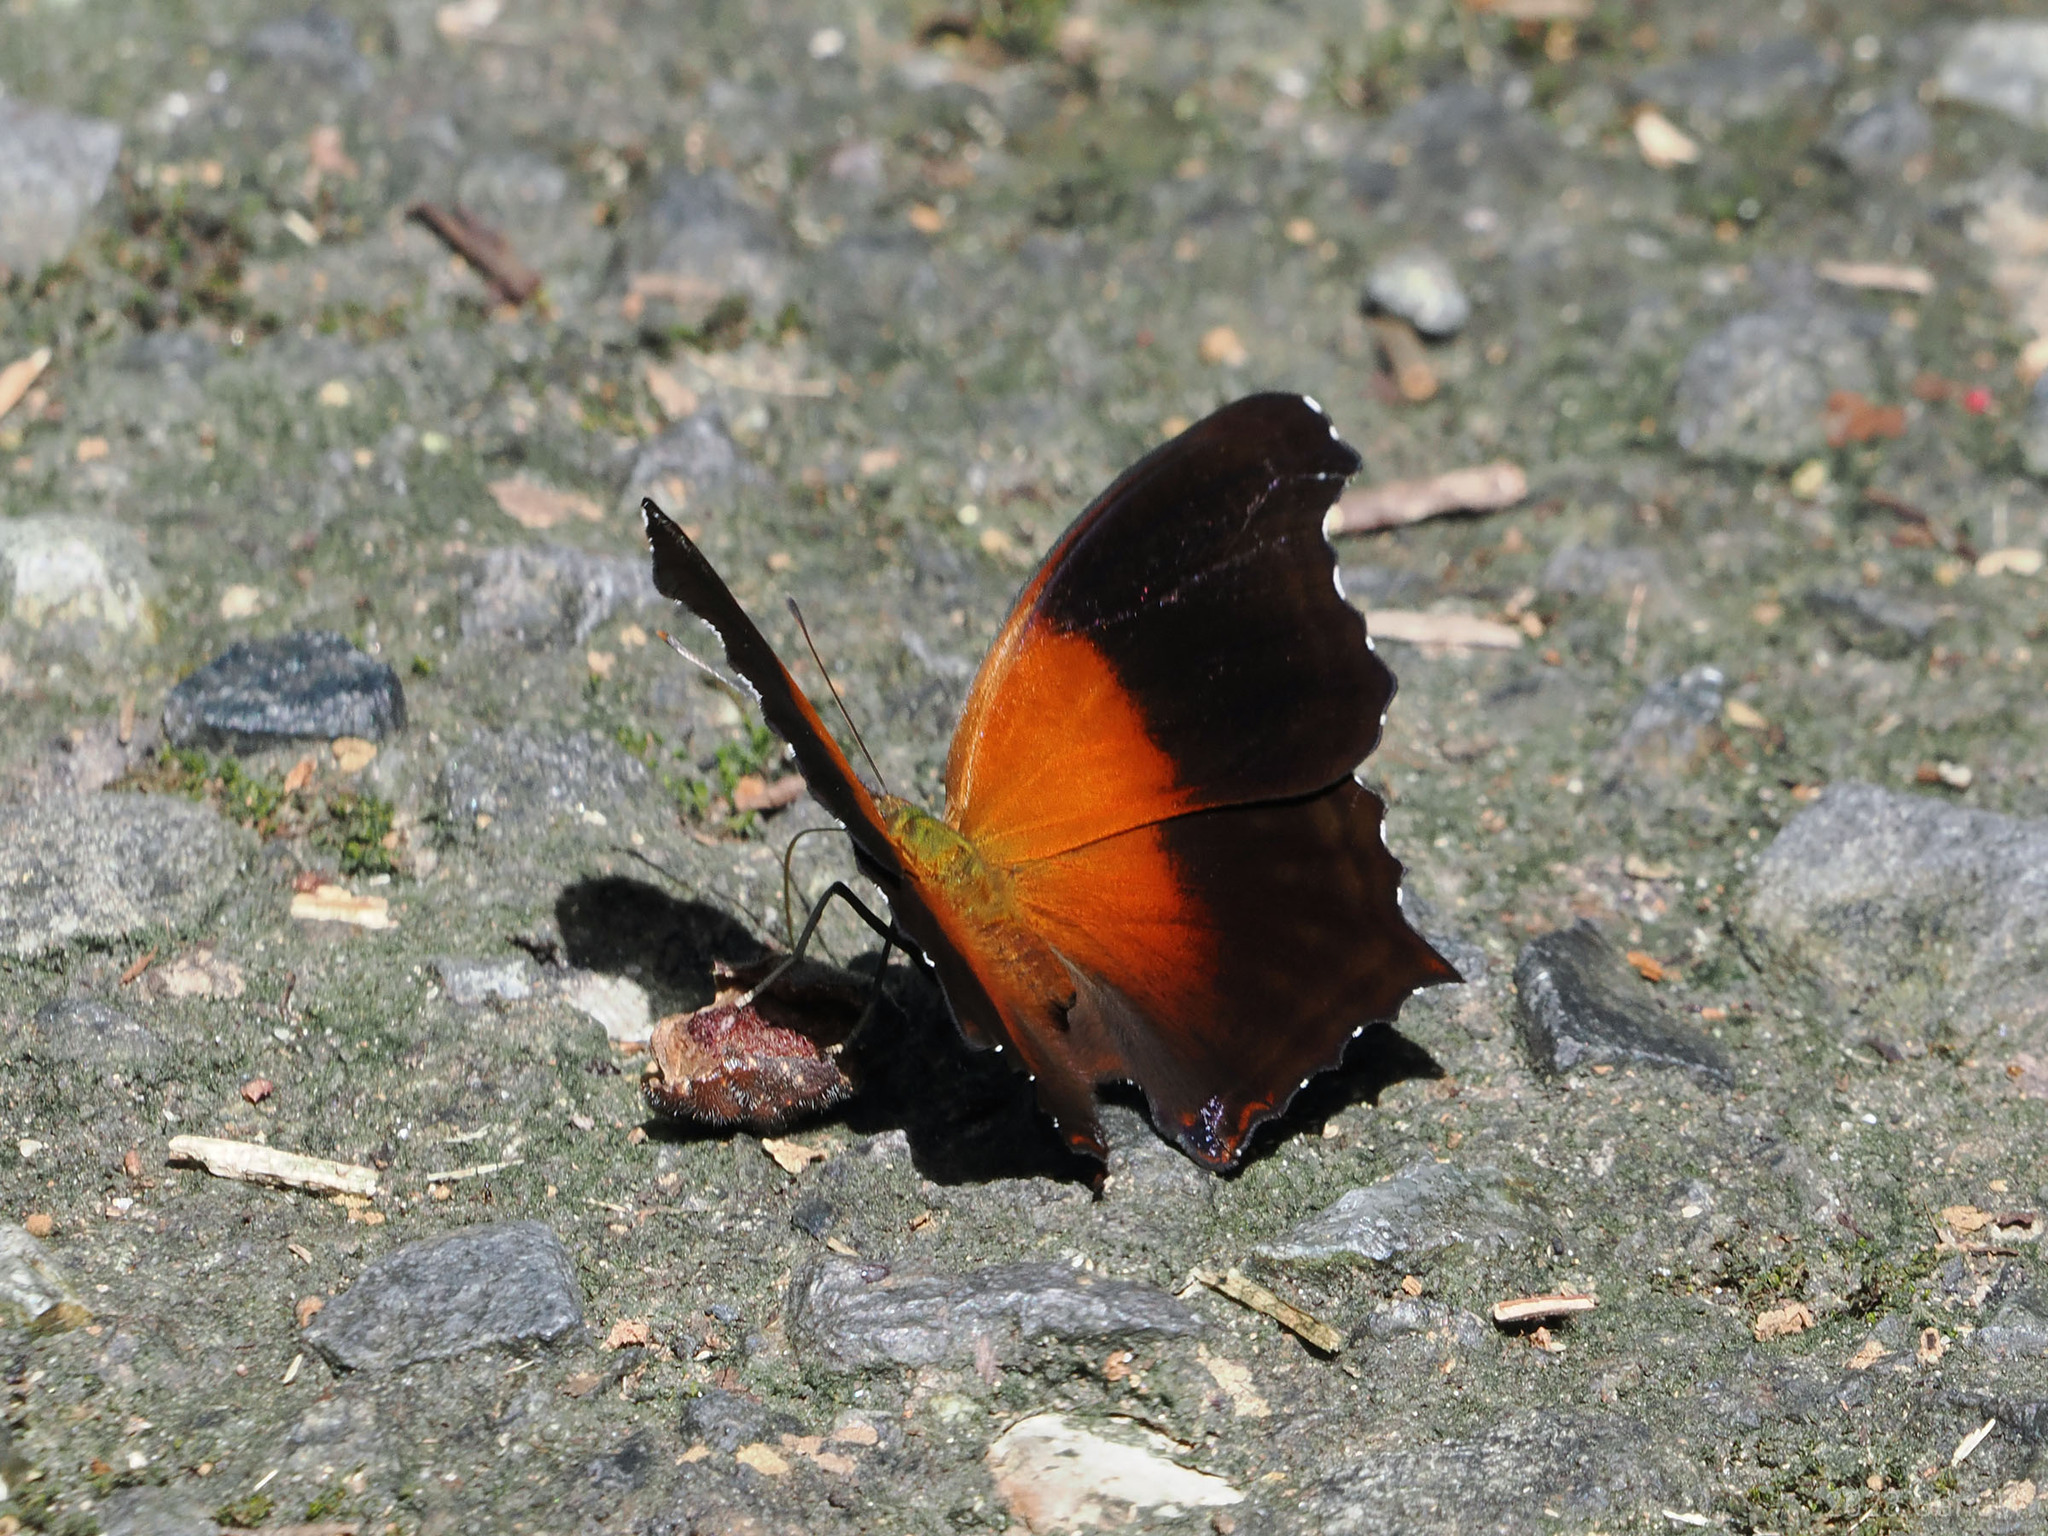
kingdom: Animalia
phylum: Arthropoda
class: Insecta
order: Lepidoptera
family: Nymphalidae
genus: Rhinopalpa
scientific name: Rhinopalpa polynice
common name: Wizard
